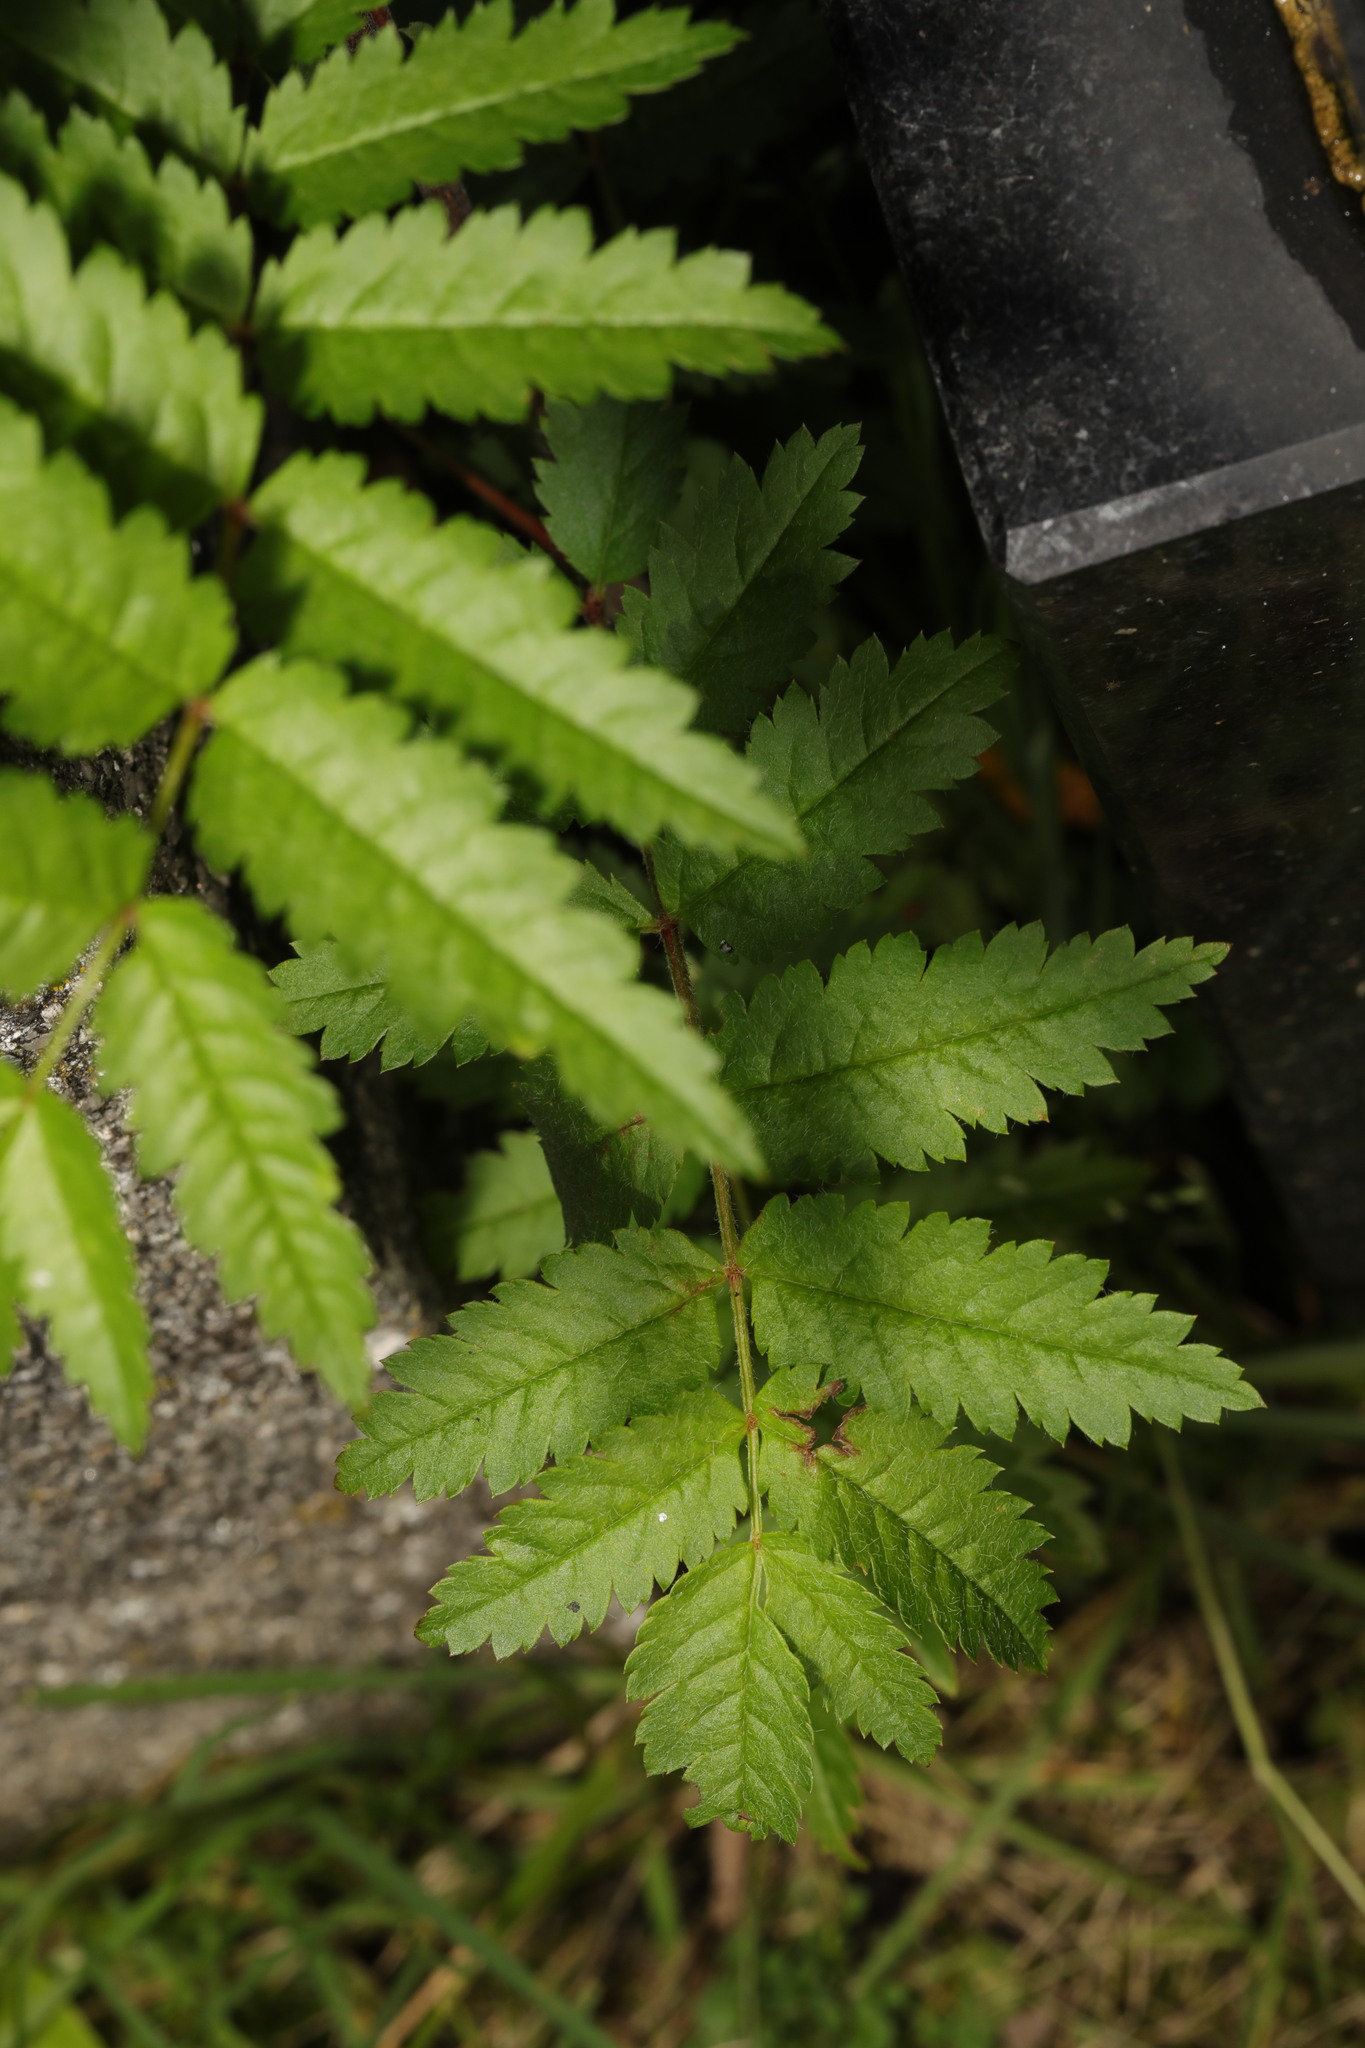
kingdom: Plantae
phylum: Tracheophyta
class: Magnoliopsida
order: Rosales
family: Rosaceae
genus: Sorbus
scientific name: Sorbus aucuparia
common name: Rowan
